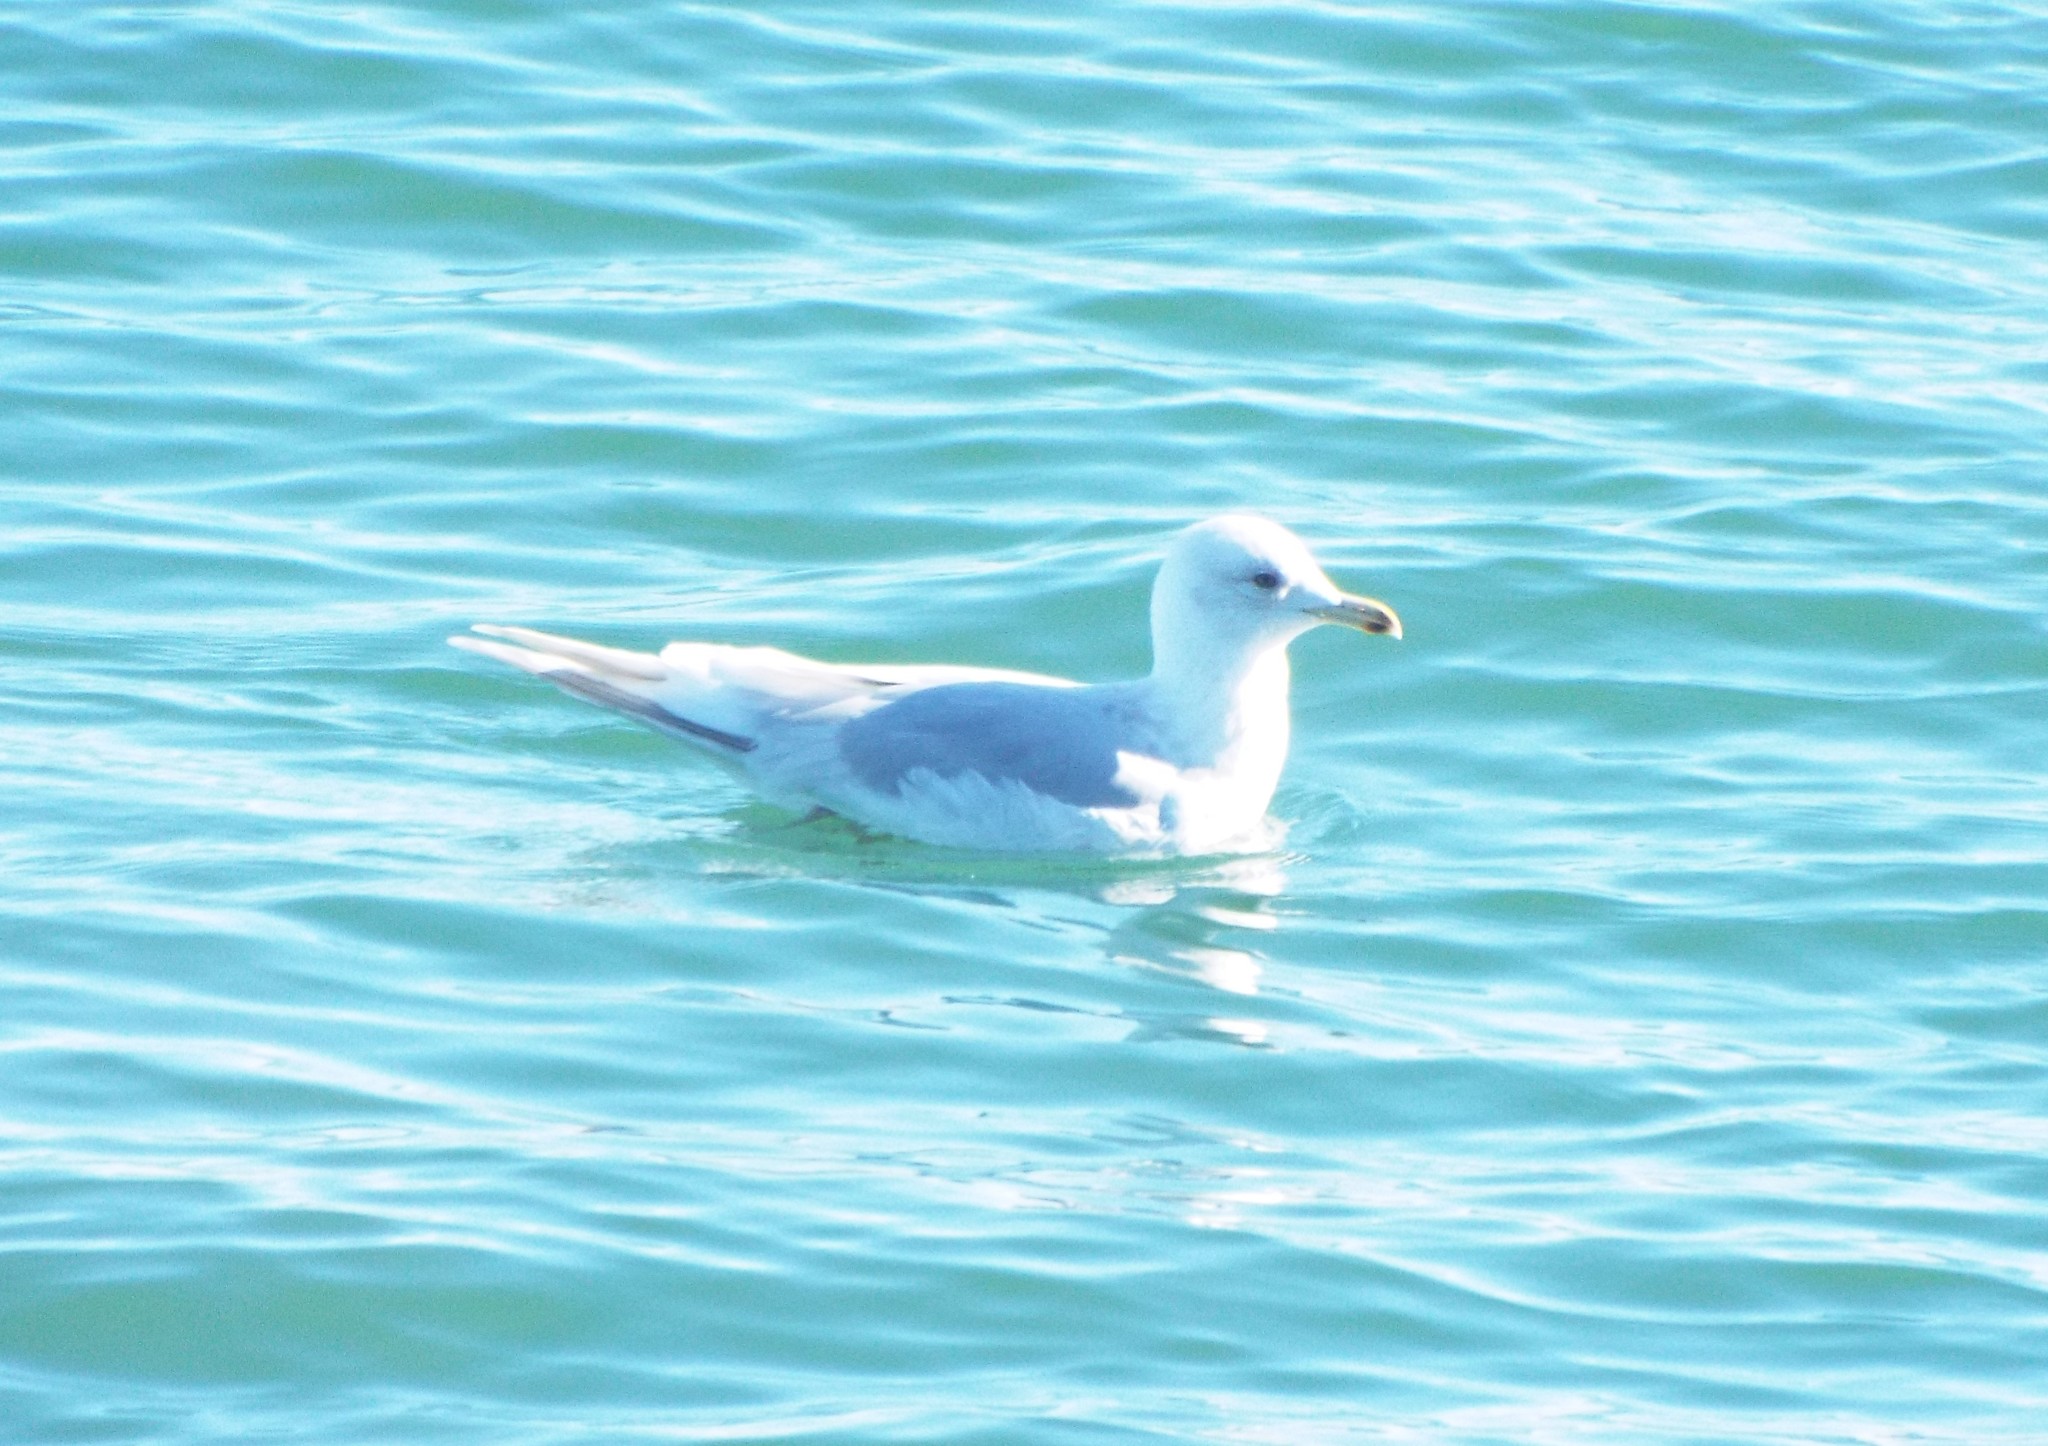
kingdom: Animalia
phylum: Chordata
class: Aves
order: Charadriiformes
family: Laridae
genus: Larus
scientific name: Larus glaucoides
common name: Iceland gull
